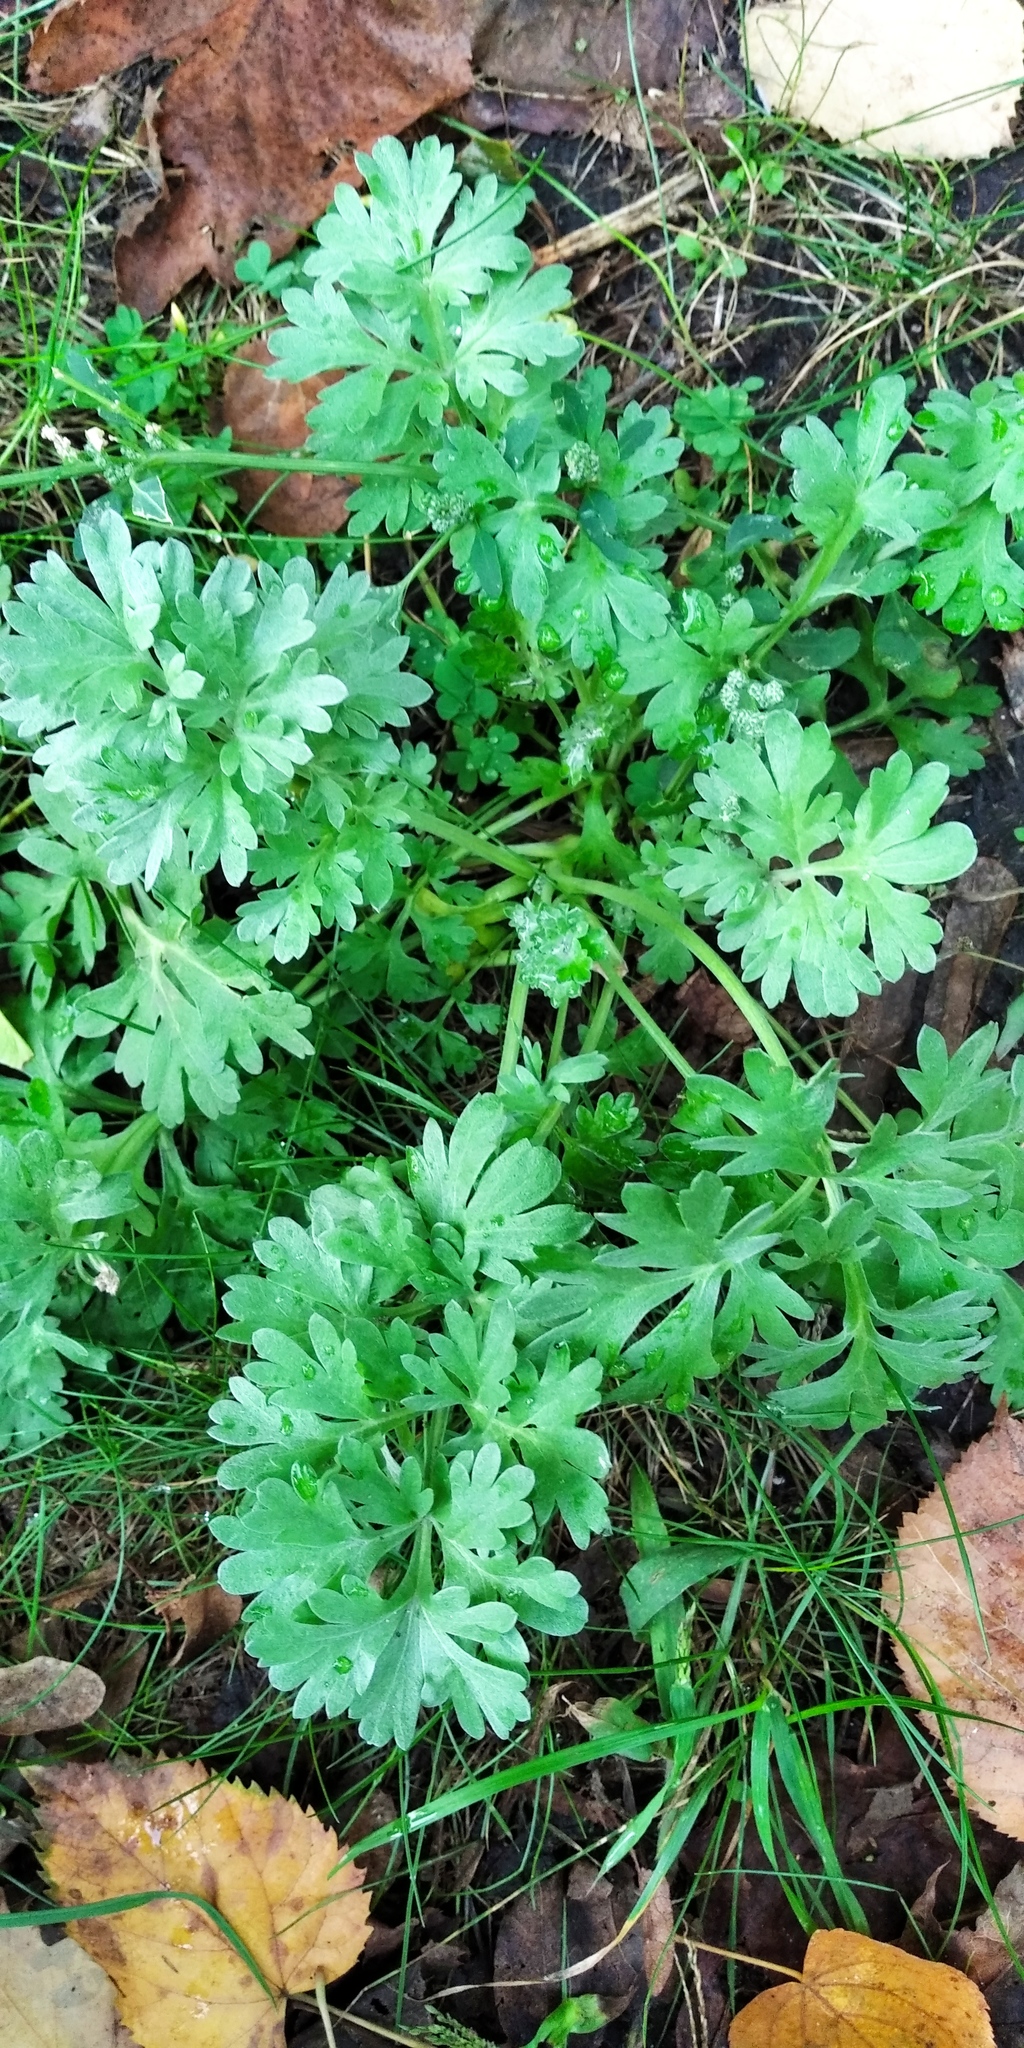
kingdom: Plantae
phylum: Tracheophyta
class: Magnoliopsida
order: Asterales
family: Asteraceae
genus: Artemisia
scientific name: Artemisia absinthium
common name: Wormwood
